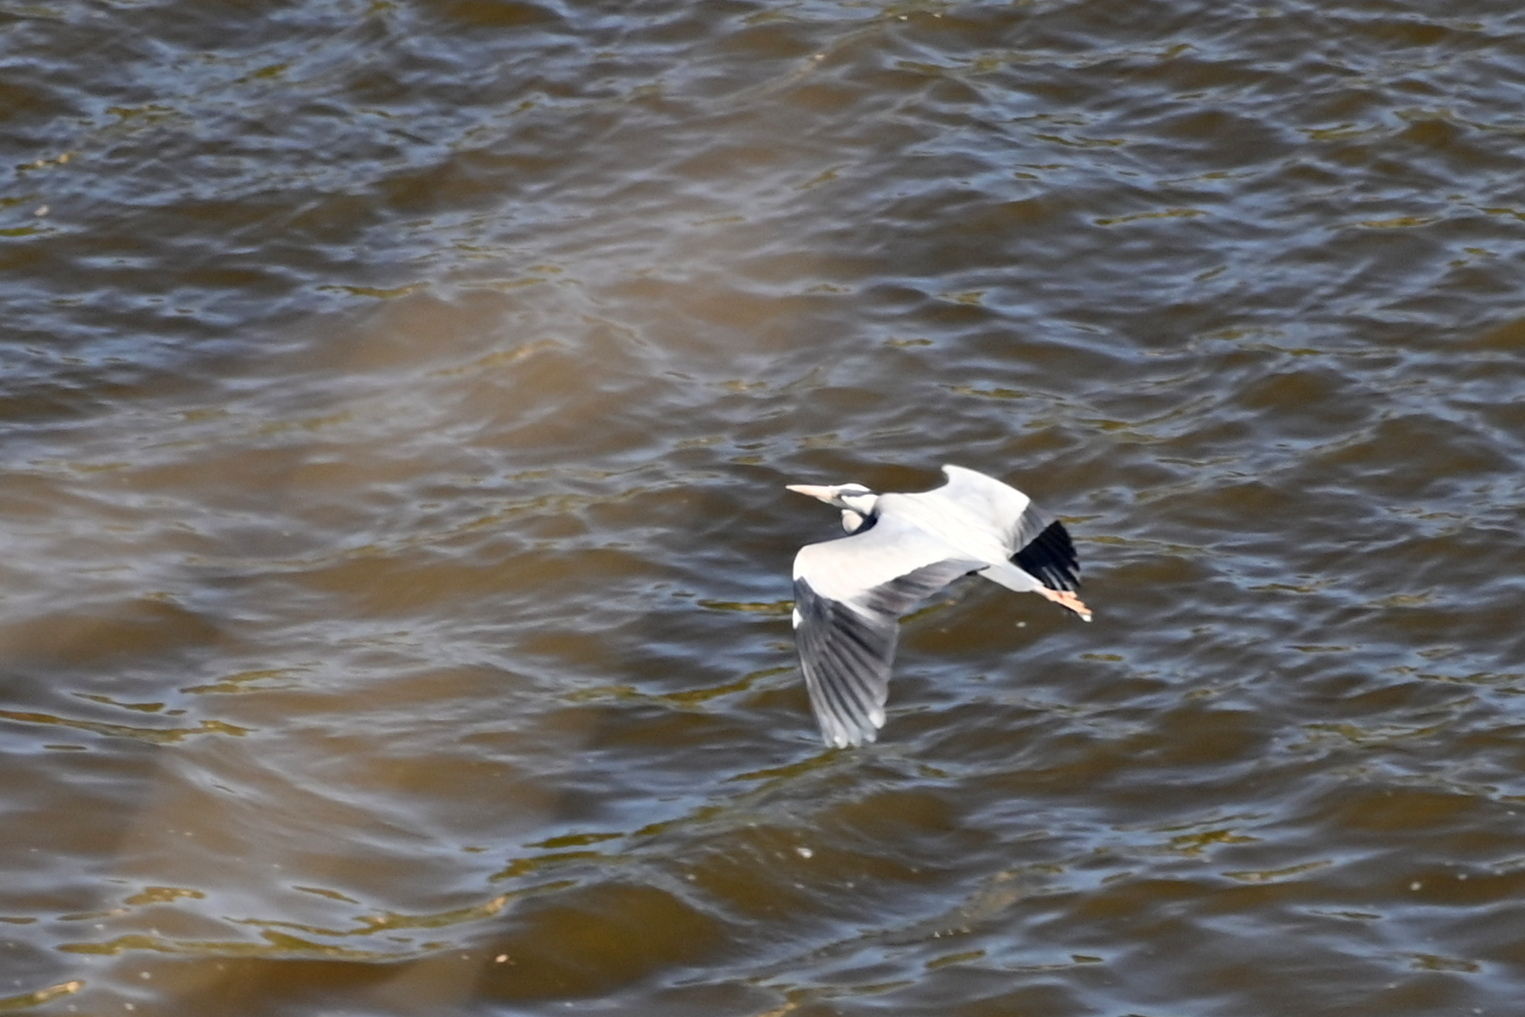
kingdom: Animalia
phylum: Chordata
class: Aves
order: Pelecaniformes
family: Ardeidae
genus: Ardea
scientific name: Ardea cinerea
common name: Grey heron
